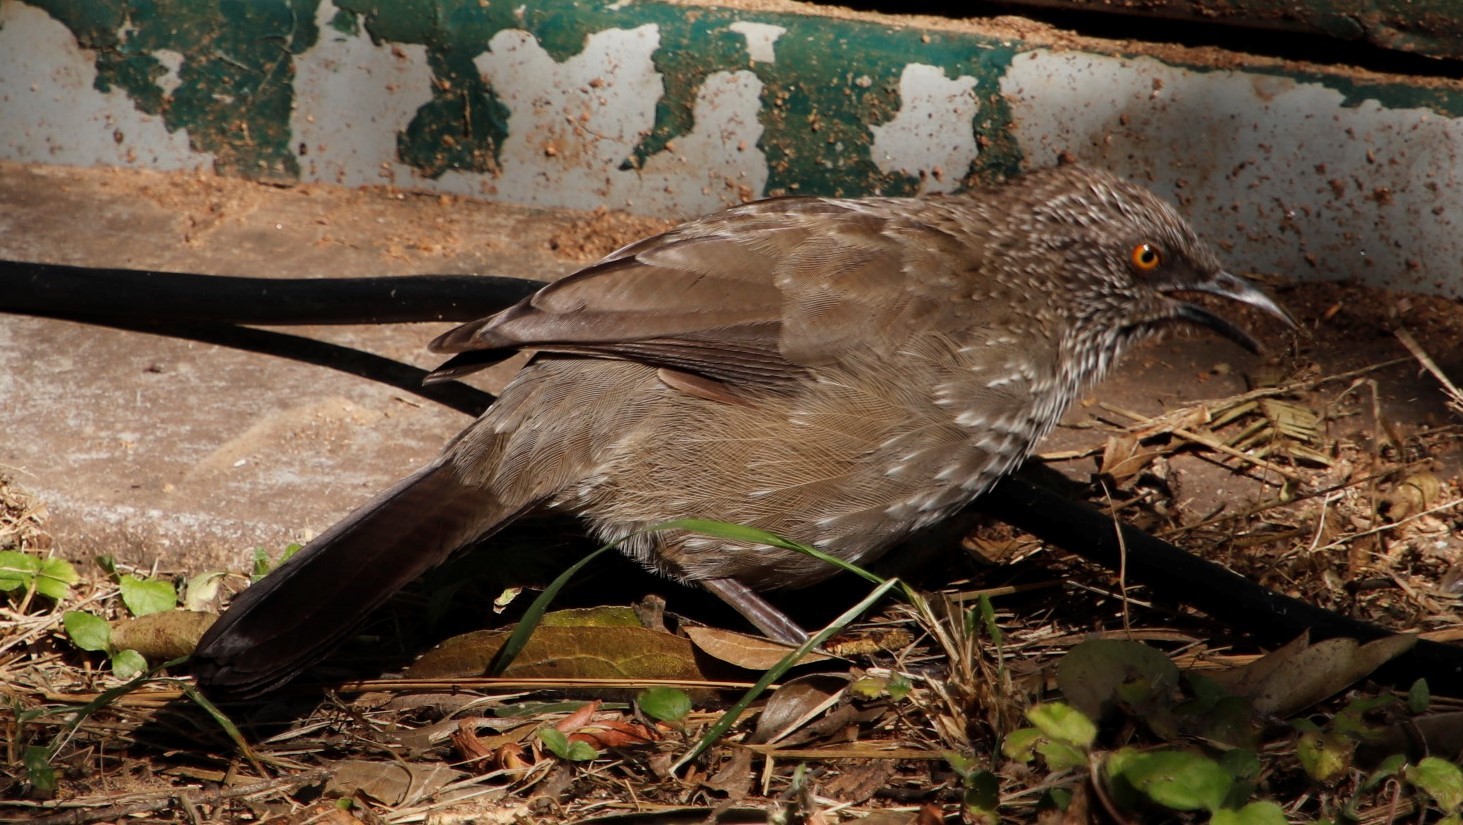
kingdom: Animalia
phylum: Chordata
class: Aves
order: Passeriformes
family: Leiothrichidae
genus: Turdoides
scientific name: Turdoides jardineii
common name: Arrow-marked babbler
